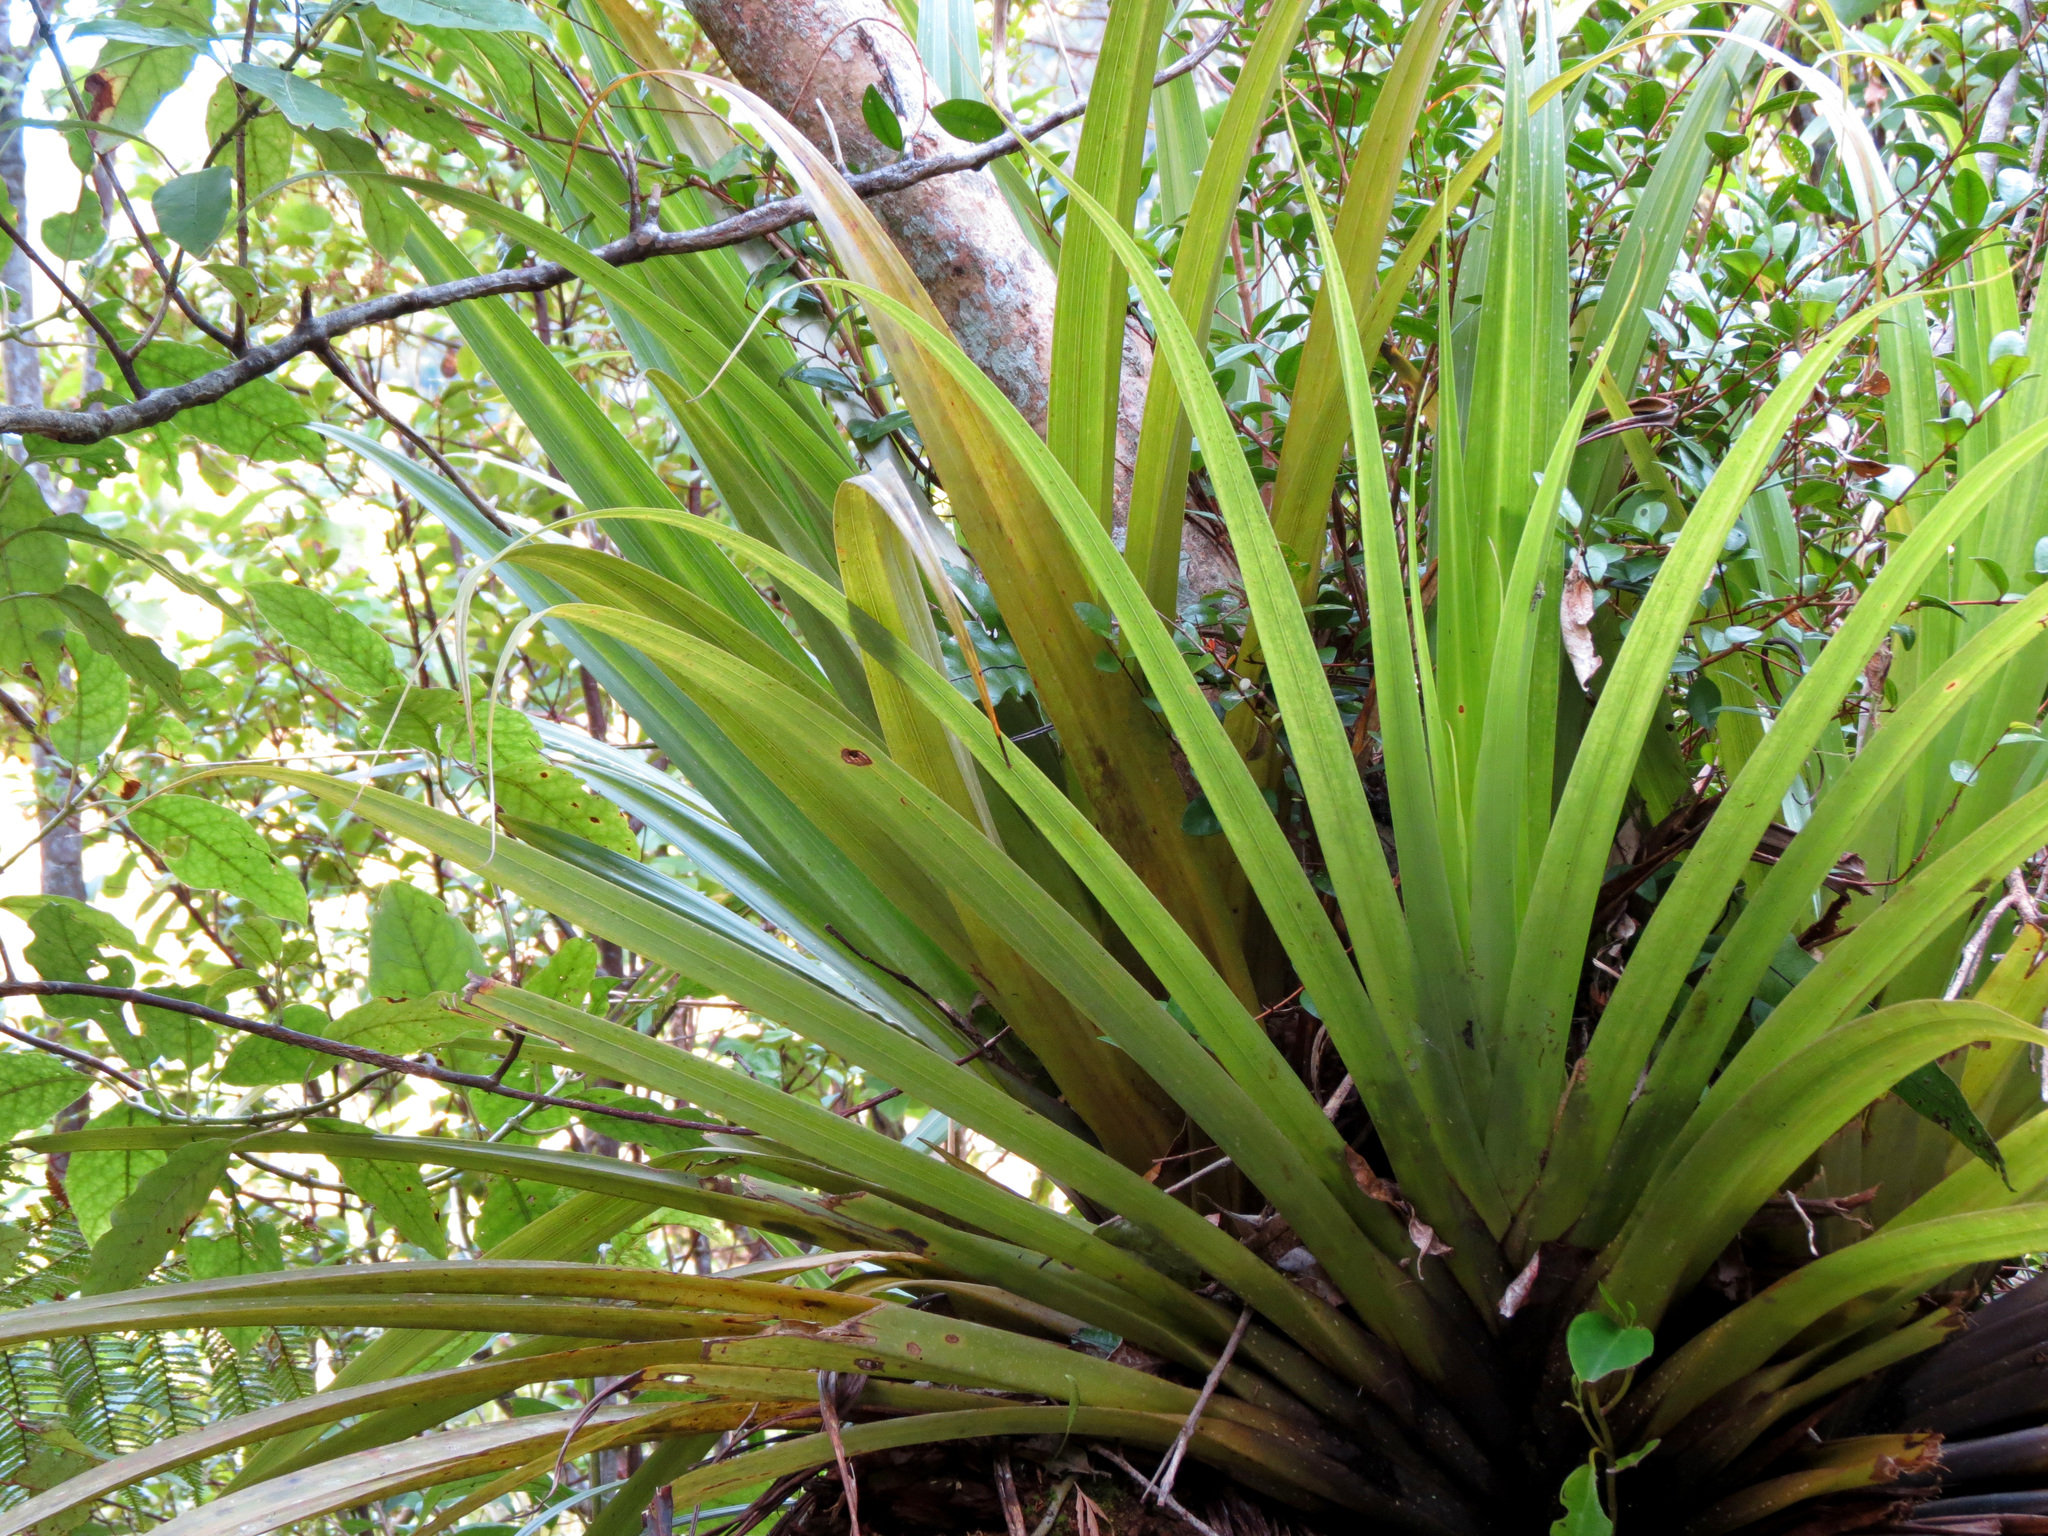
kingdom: Plantae
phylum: Tracheophyta
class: Liliopsida
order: Asparagales
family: Asteliaceae
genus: Astelia
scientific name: Astelia hastata
